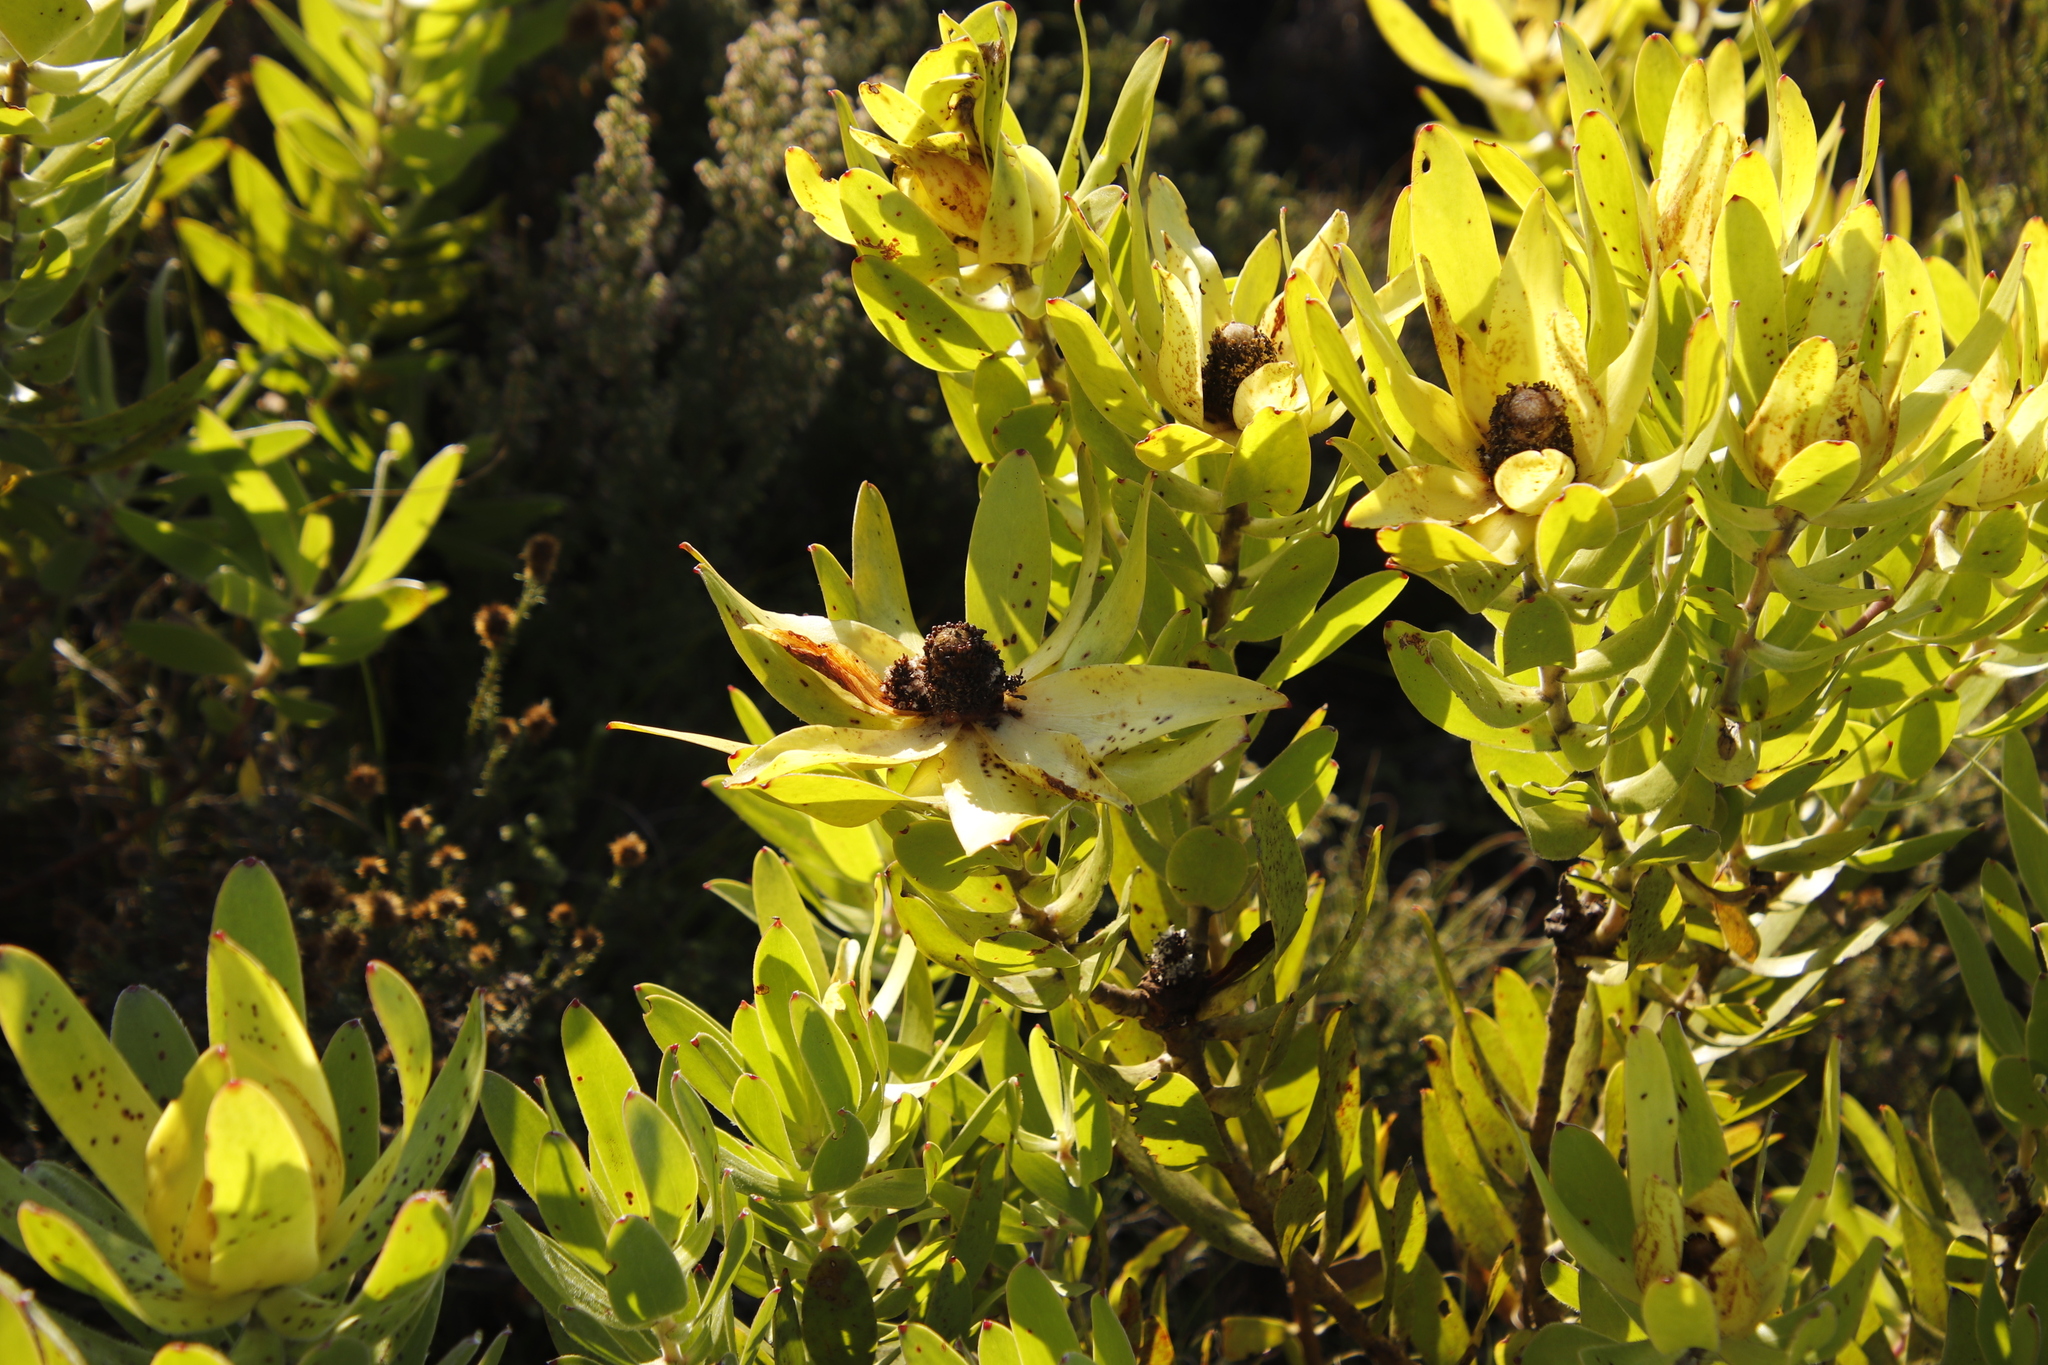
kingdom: Plantae
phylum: Tracheophyta
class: Magnoliopsida
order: Proteales
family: Proteaceae
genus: Leucadendron
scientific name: Leucadendron laureolum
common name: Golden sunshinebush
